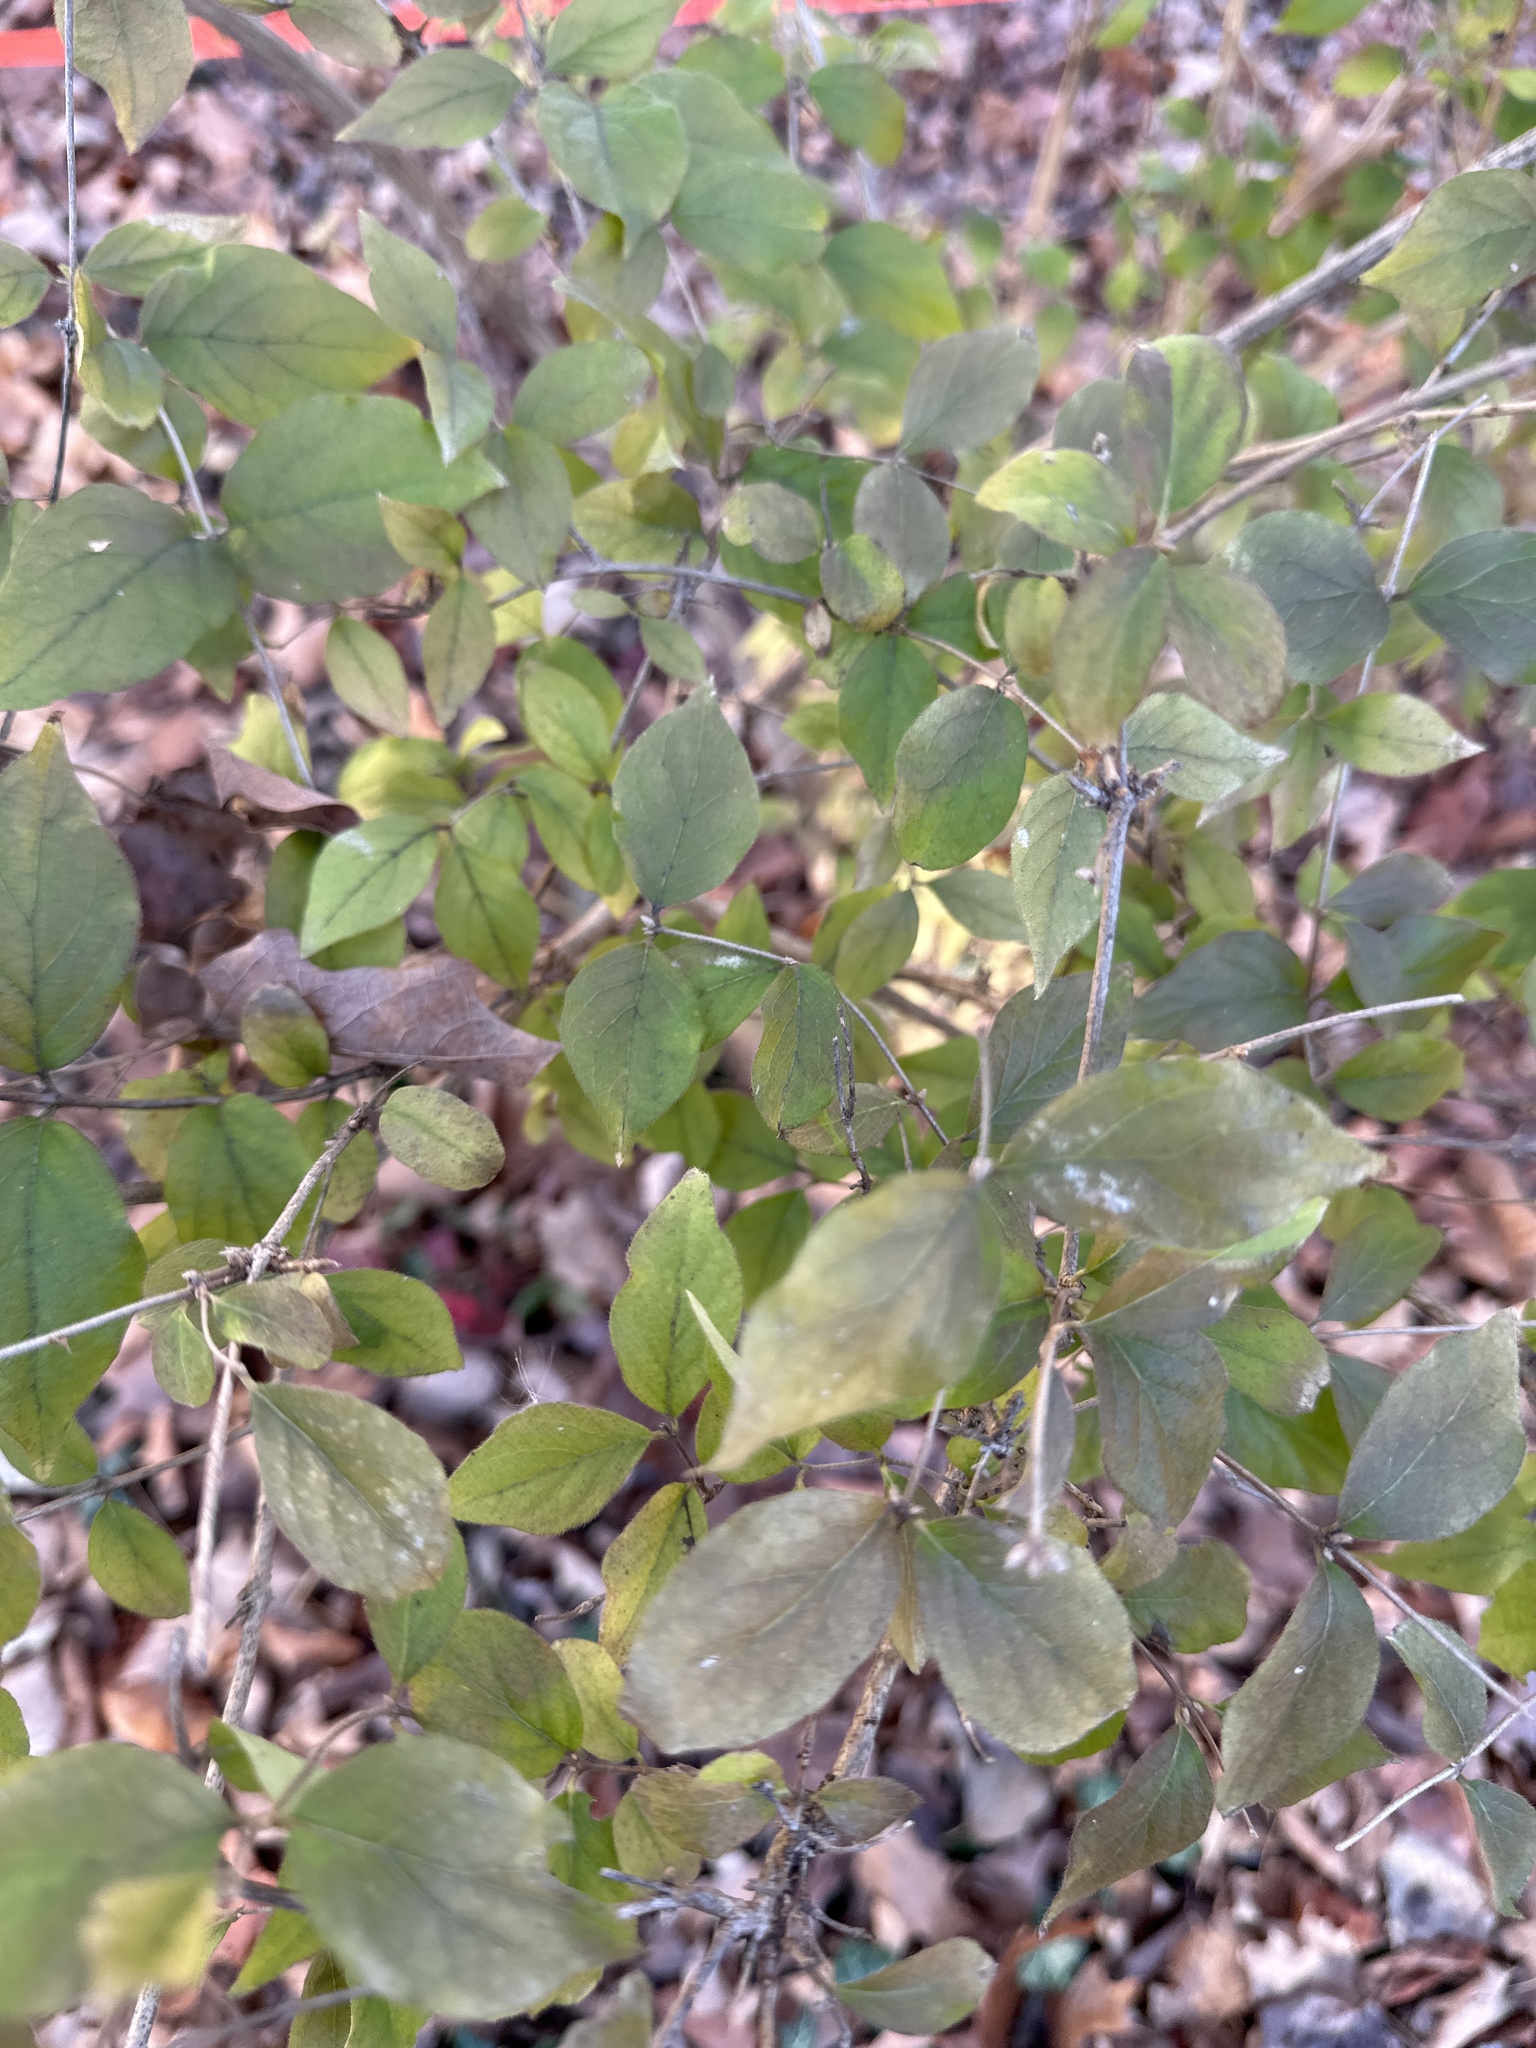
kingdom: Plantae
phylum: Tracheophyta
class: Magnoliopsida
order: Dipsacales
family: Caprifoliaceae
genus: Lonicera
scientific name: Lonicera maackii
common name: Amur honeysuckle
